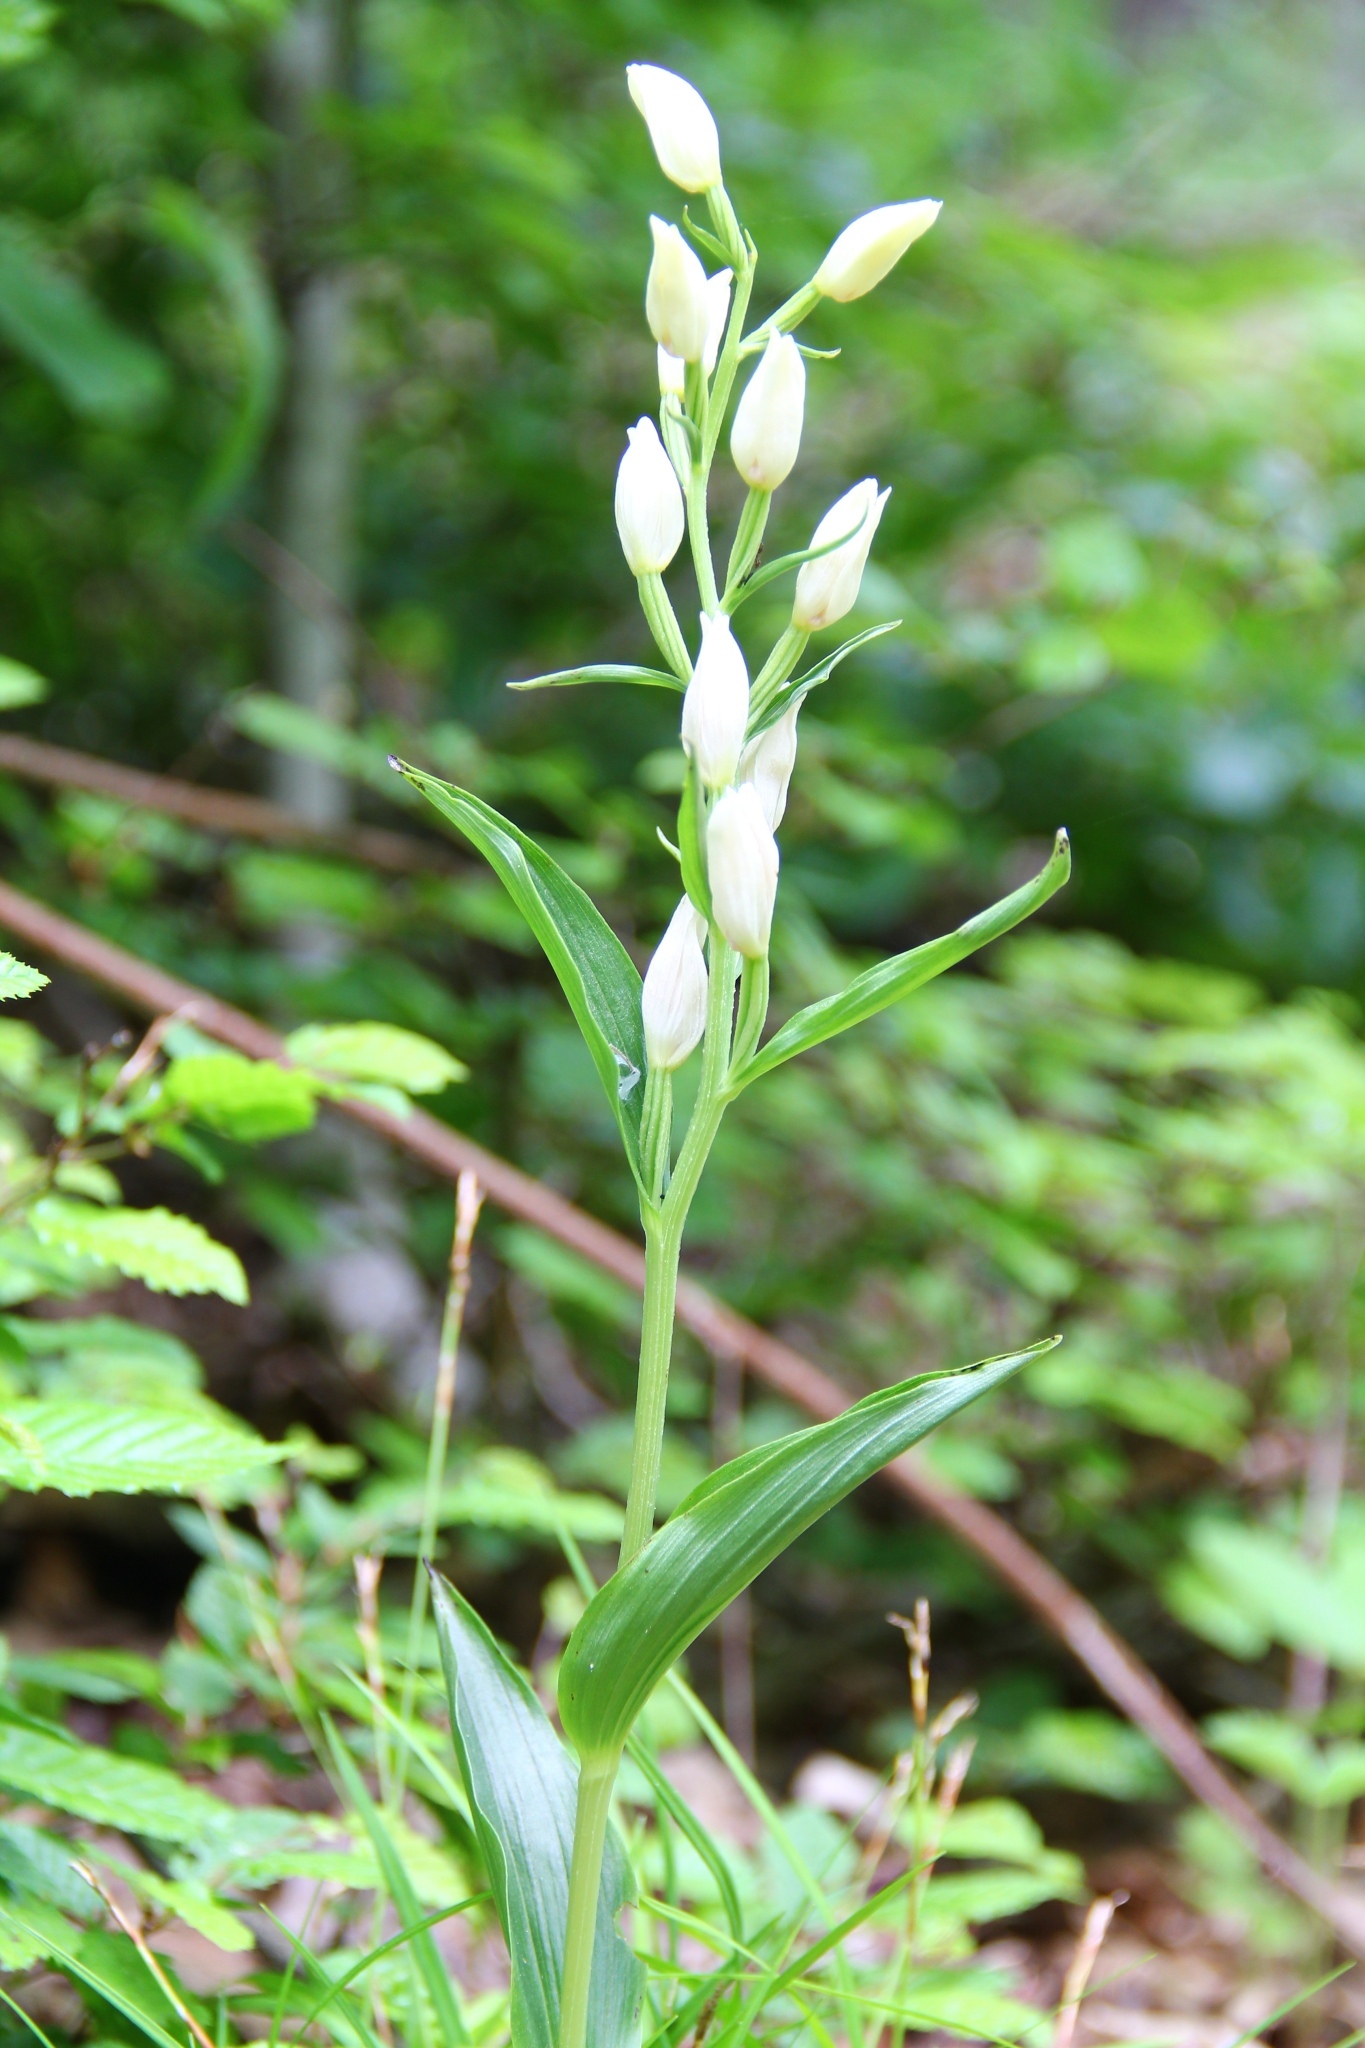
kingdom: Plantae
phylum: Tracheophyta
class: Liliopsida
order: Asparagales
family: Orchidaceae
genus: Cephalanthera
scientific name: Cephalanthera damasonium
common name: White helleborine
